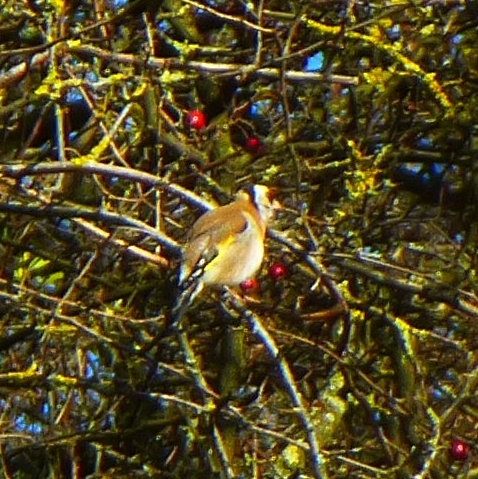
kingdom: Animalia
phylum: Chordata
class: Aves
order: Passeriformes
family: Fringillidae
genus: Carduelis
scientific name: Carduelis carduelis
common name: European goldfinch
